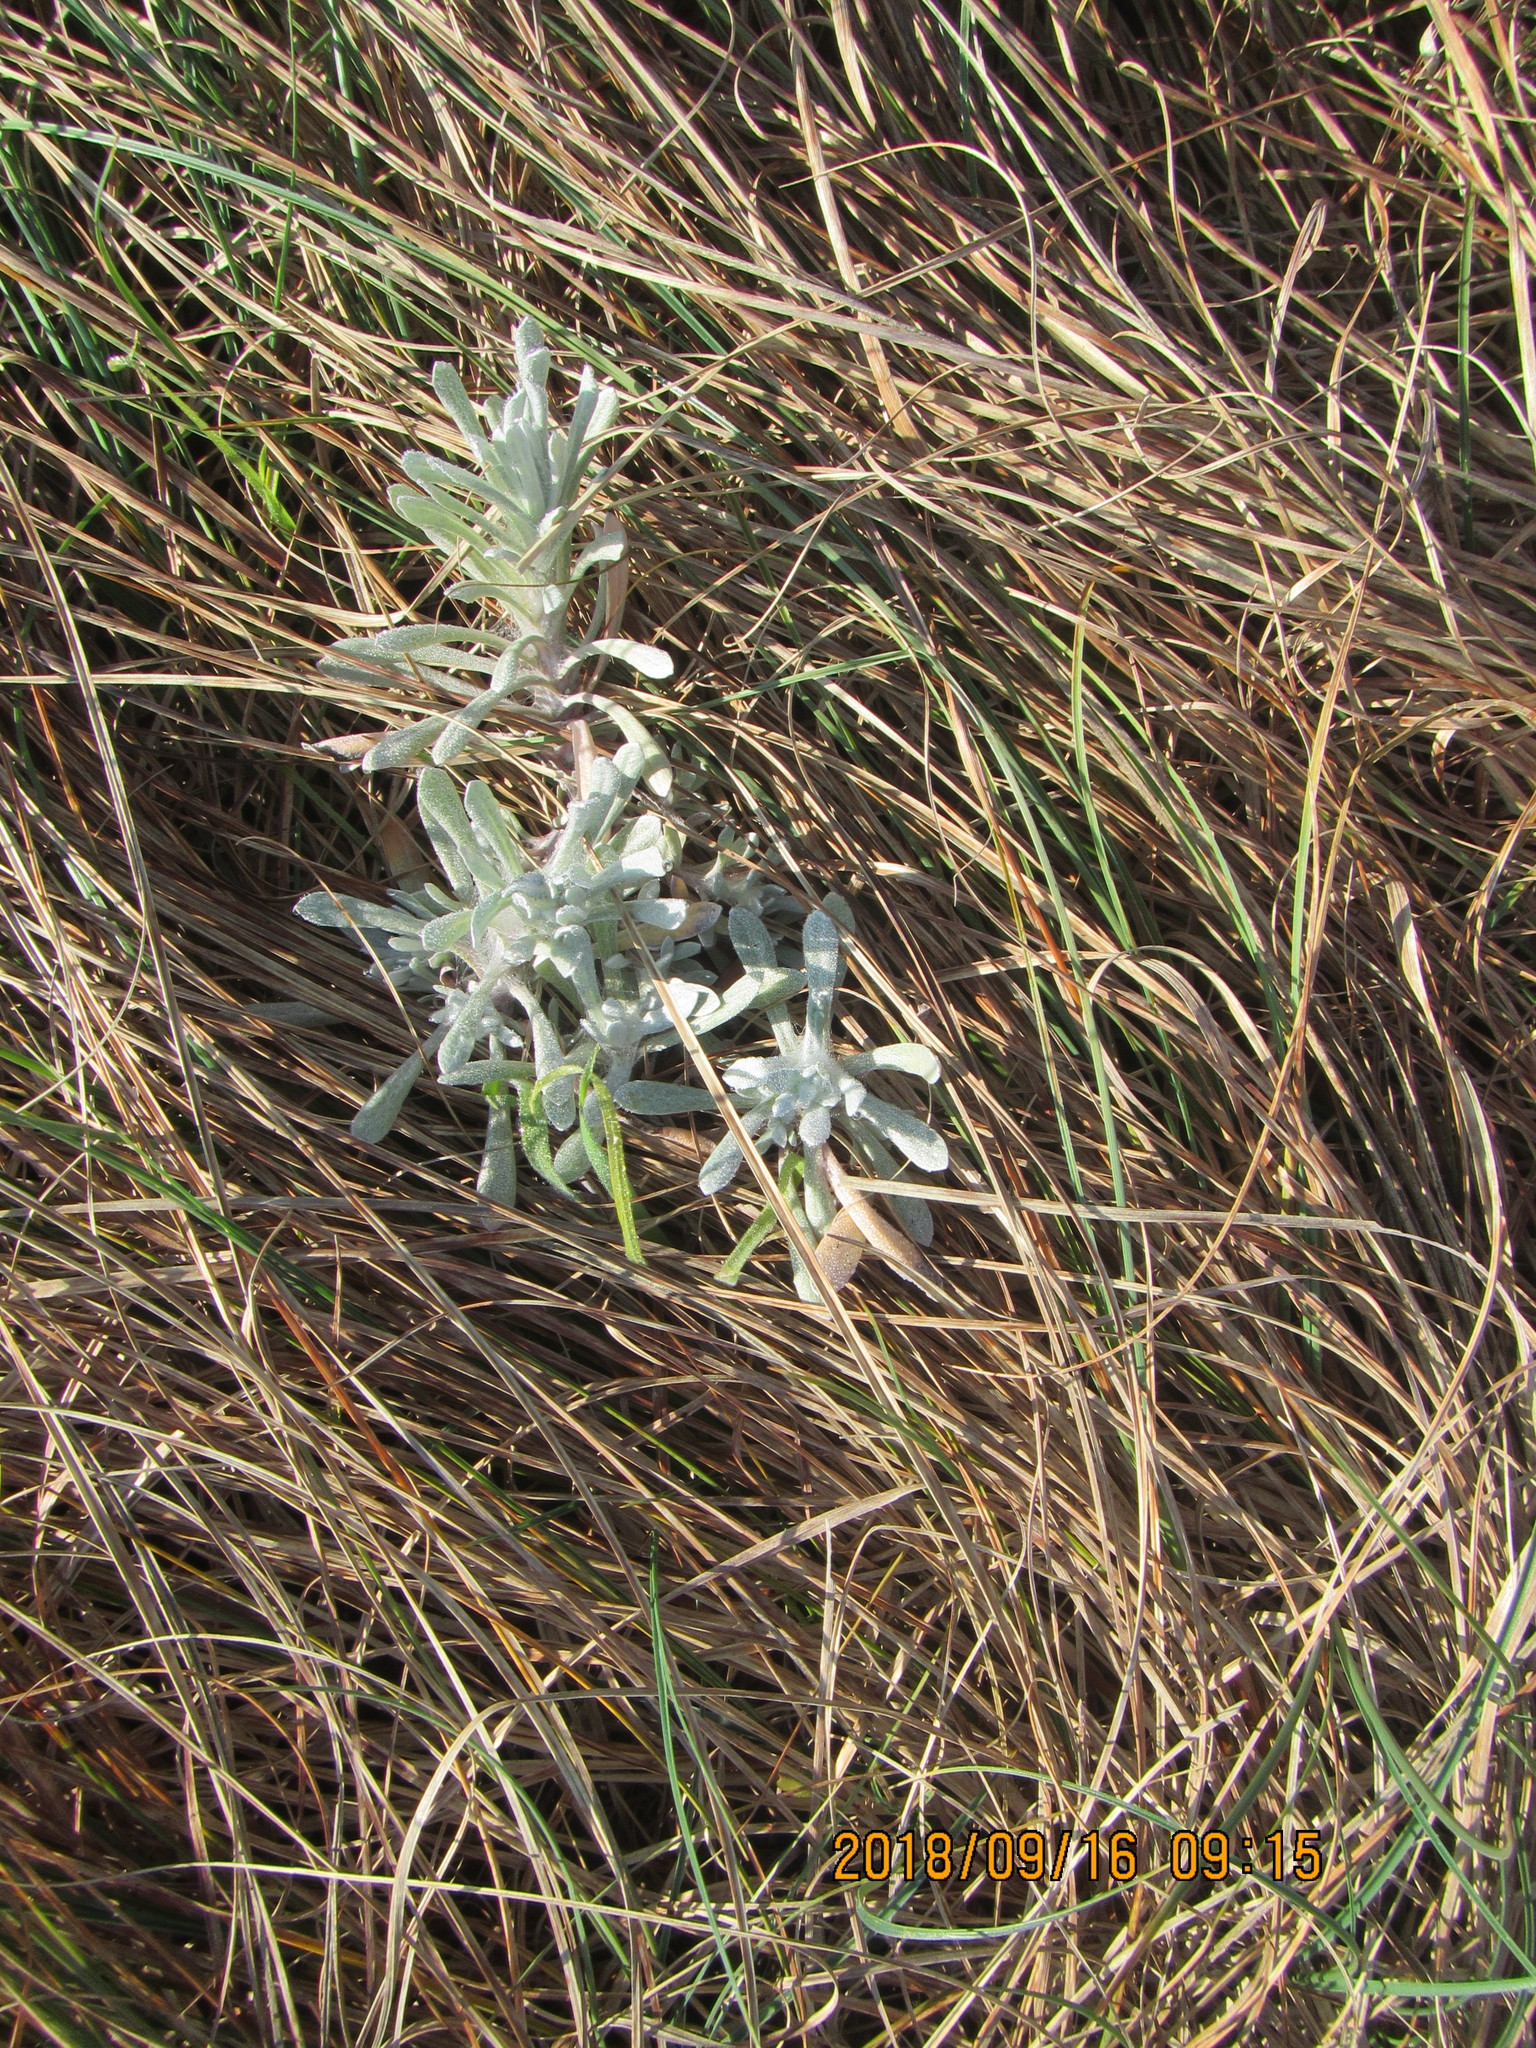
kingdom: Plantae
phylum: Tracheophyta
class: Magnoliopsida
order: Asterales
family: Asteraceae
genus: Helichrysum
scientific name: Helichrysum luteoalbum
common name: Daisy
